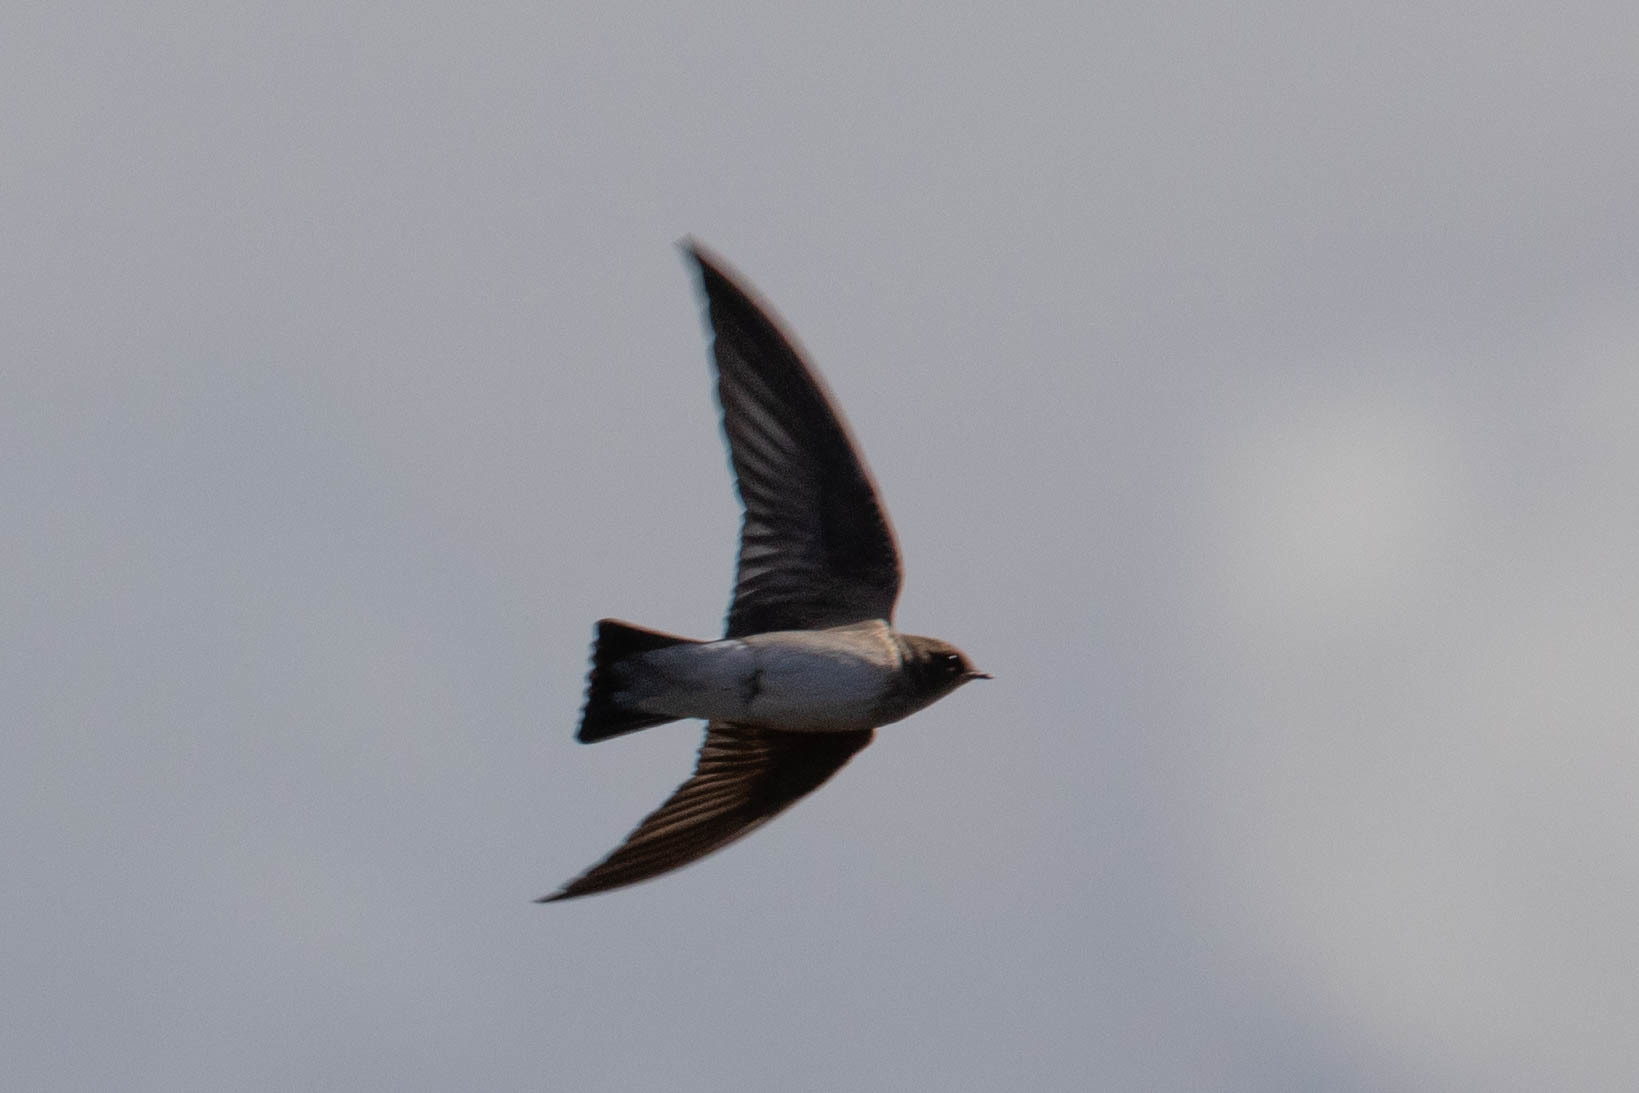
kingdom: Animalia
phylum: Chordata
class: Aves
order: Passeriformes
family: Hirundinidae
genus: Stelgidopteryx
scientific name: Stelgidopteryx serripennis
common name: Northern rough-winged swallow
